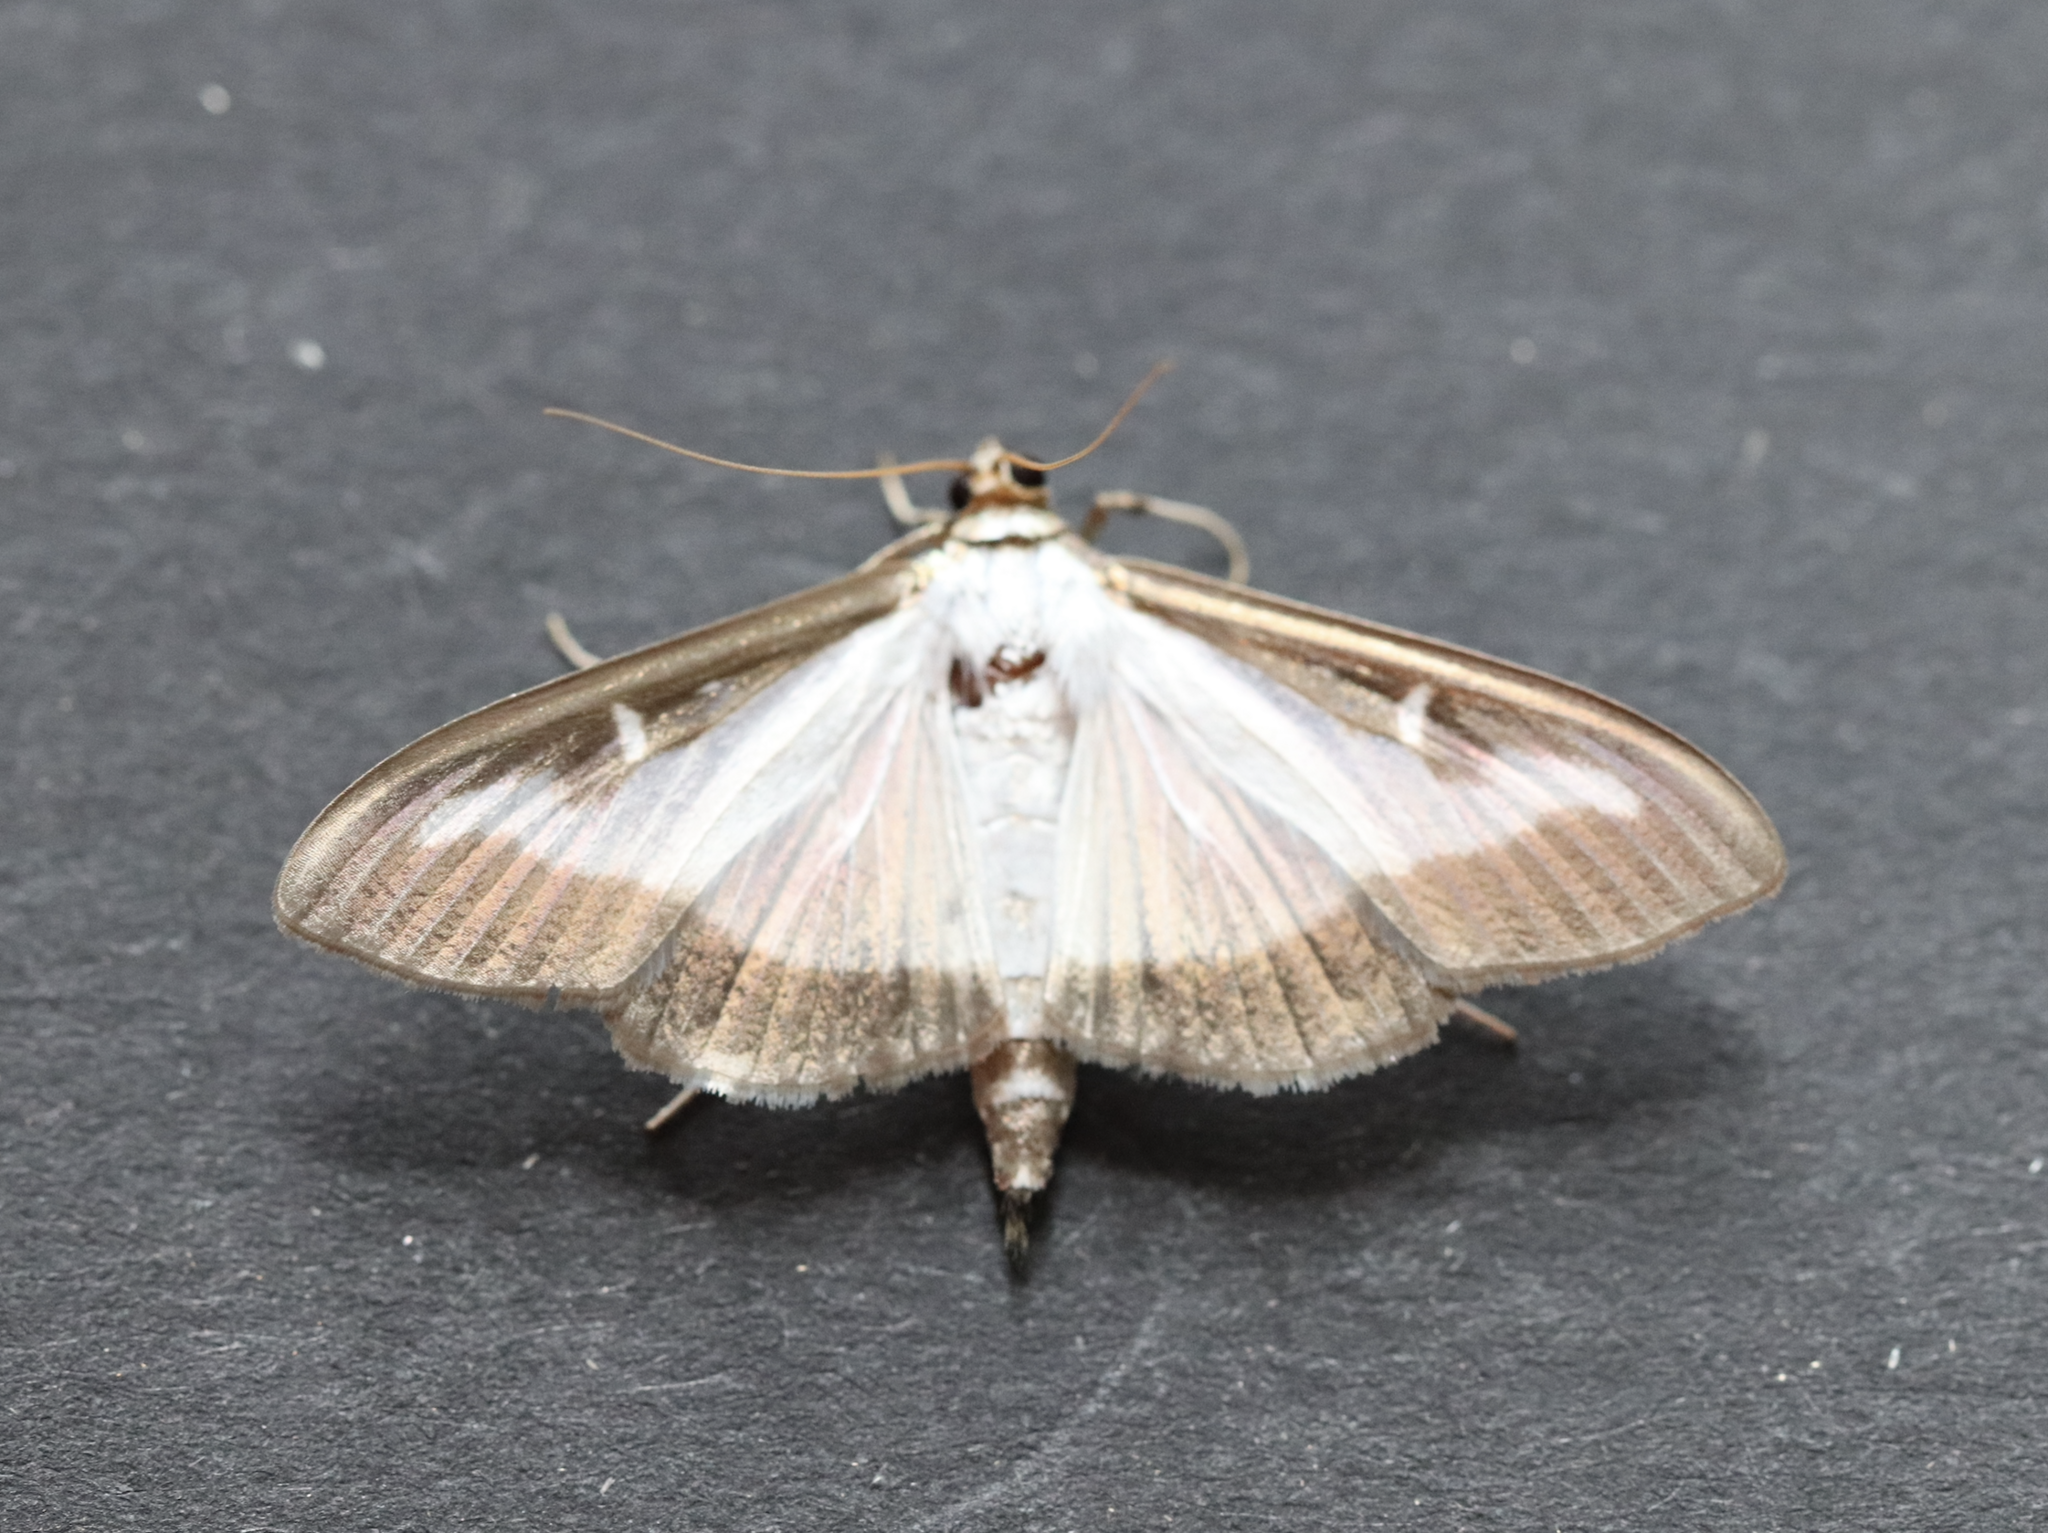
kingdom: Animalia
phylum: Arthropoda
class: Insecta
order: Lepidoptera
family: Crambidae
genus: Cydalima
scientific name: Cydalima perspectalis
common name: Box tree moth
